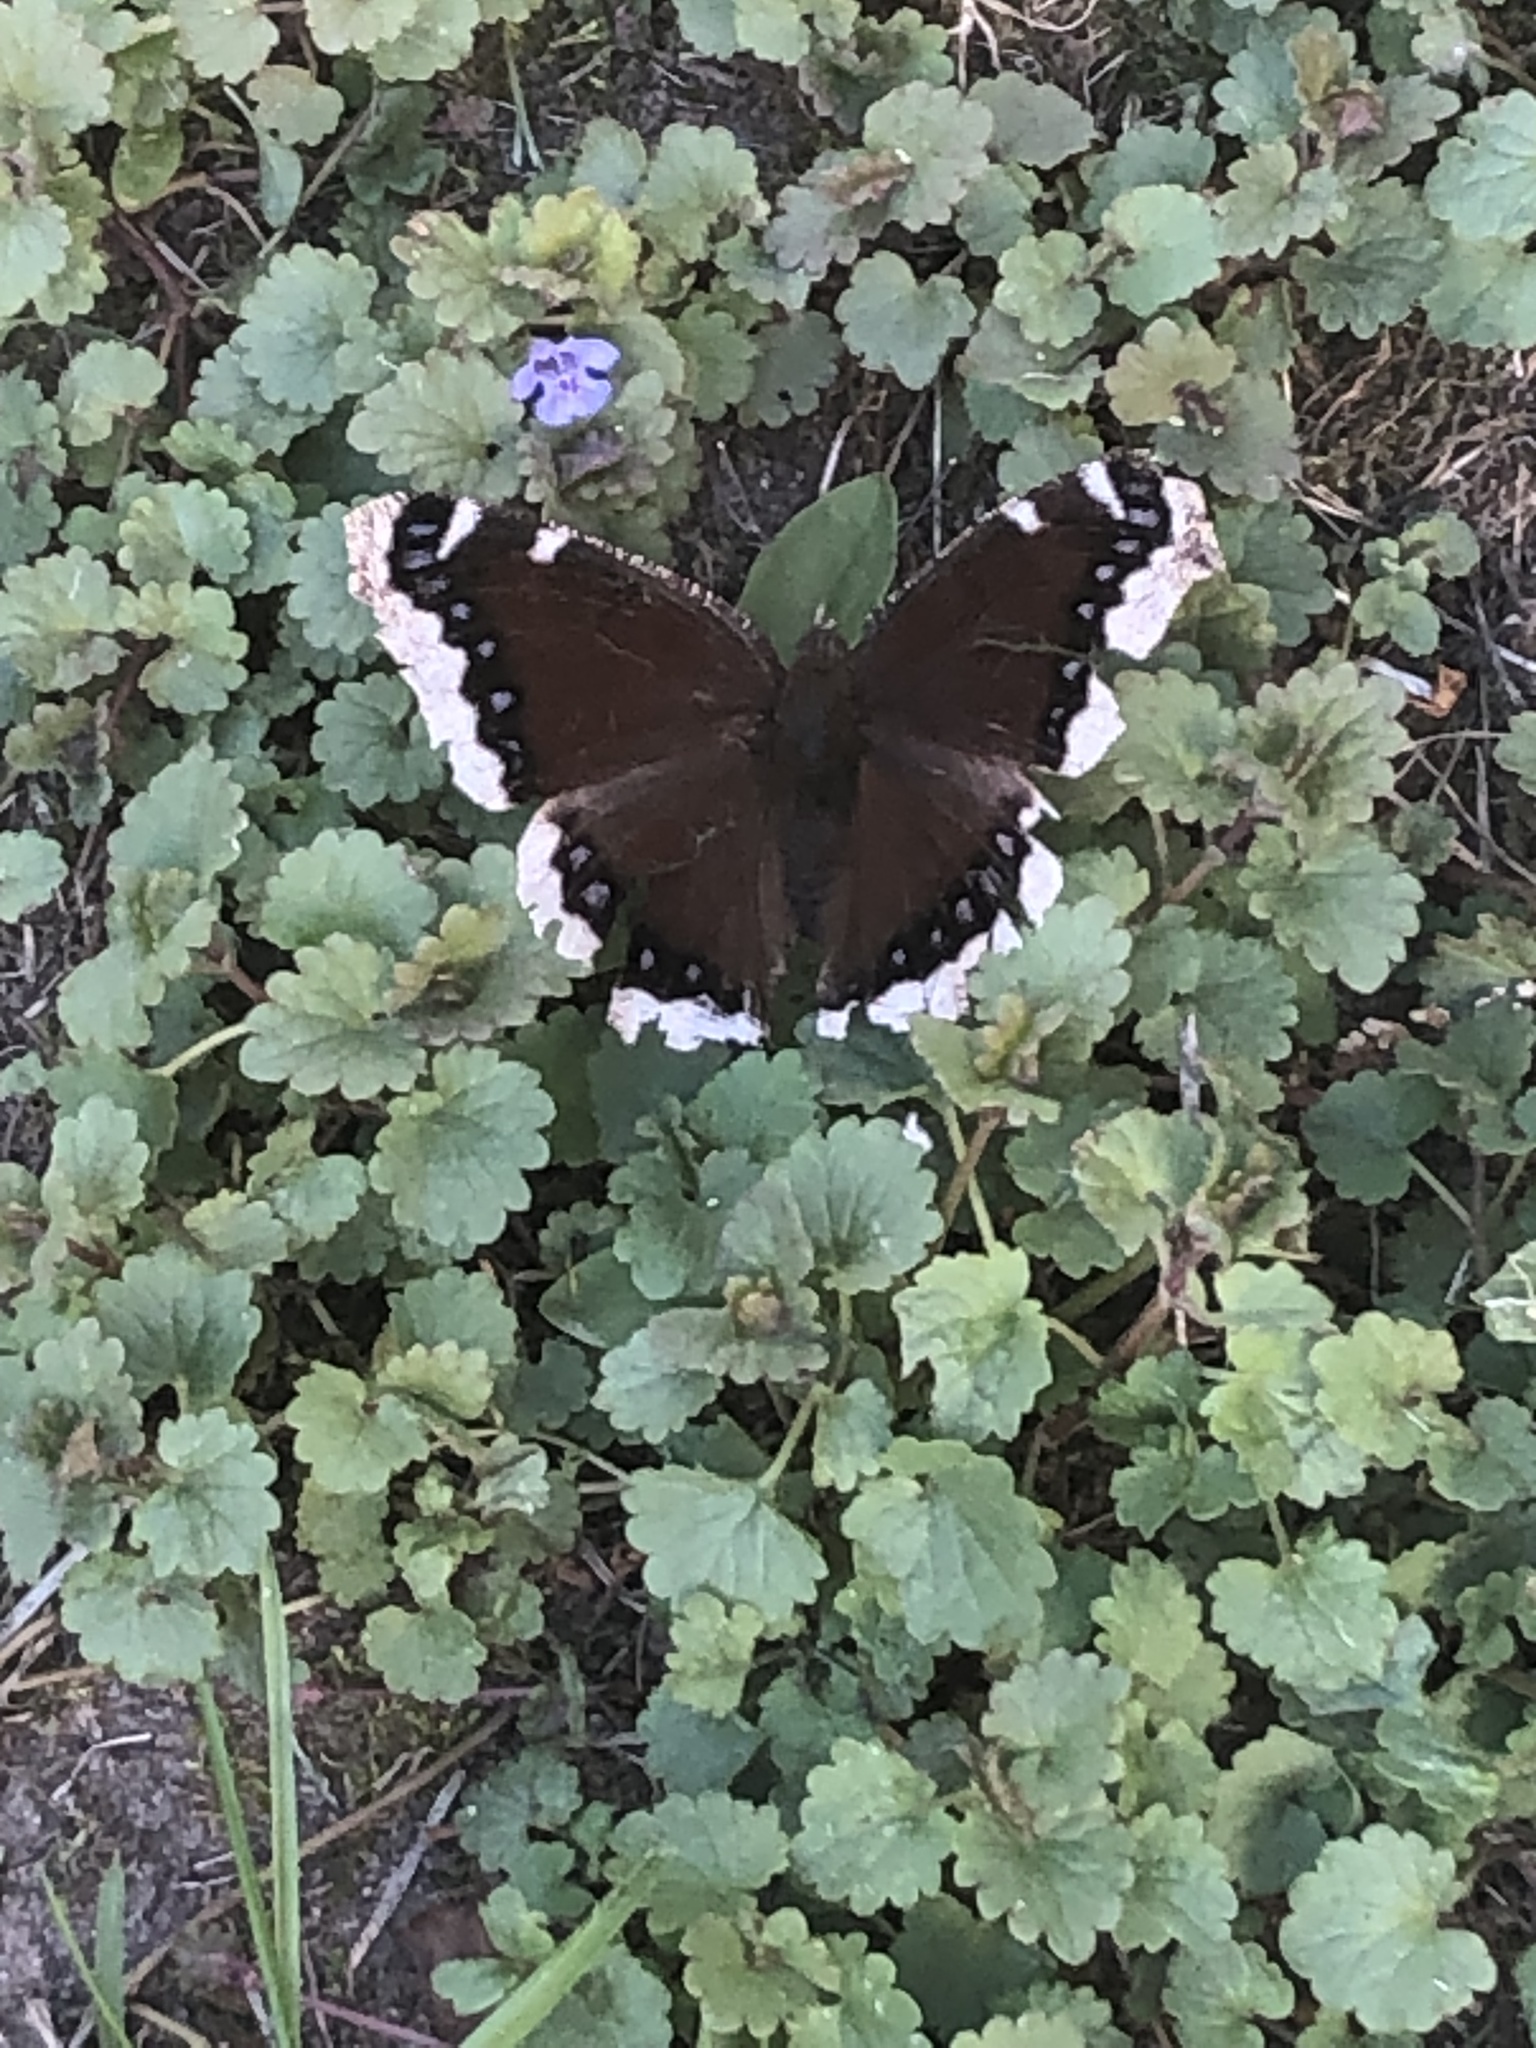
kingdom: Animalia
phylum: Arthropoda
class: Insecta
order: Lepidoptera
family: Nymphalidae
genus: Nymphalis
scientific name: Nymphalis antiopa
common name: Camberwell beauty
